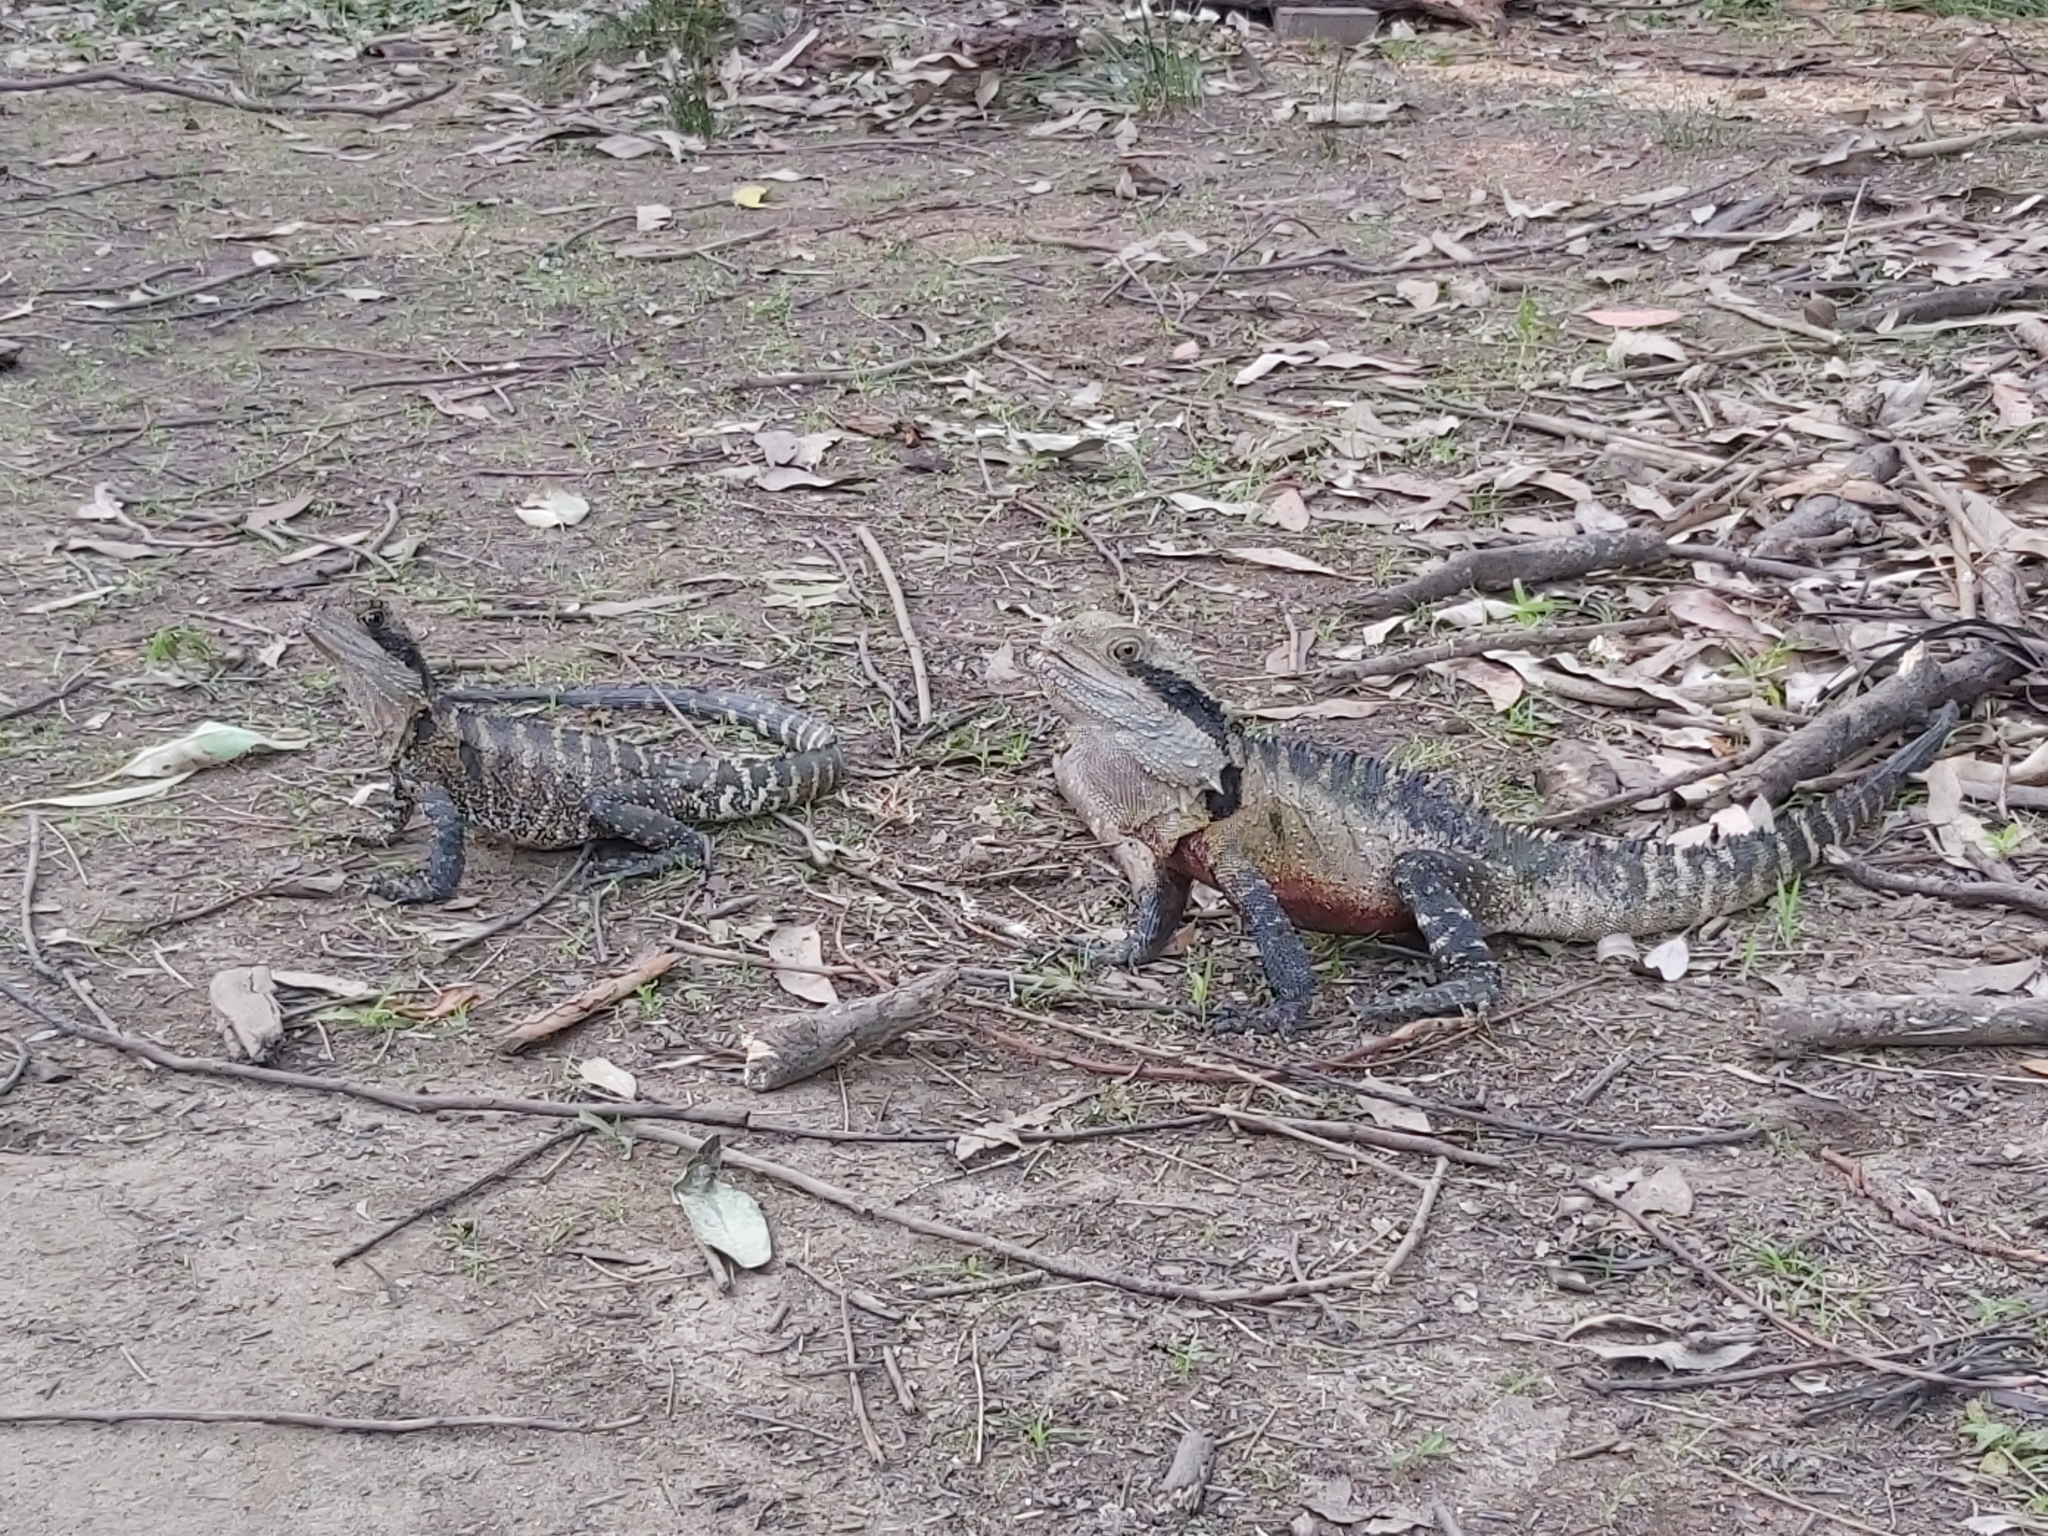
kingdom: Animalia
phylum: Chordata
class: Squamata
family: Agamidae
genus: Intellagama
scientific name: Intellagama lesueurii
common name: Eastern water dragon
